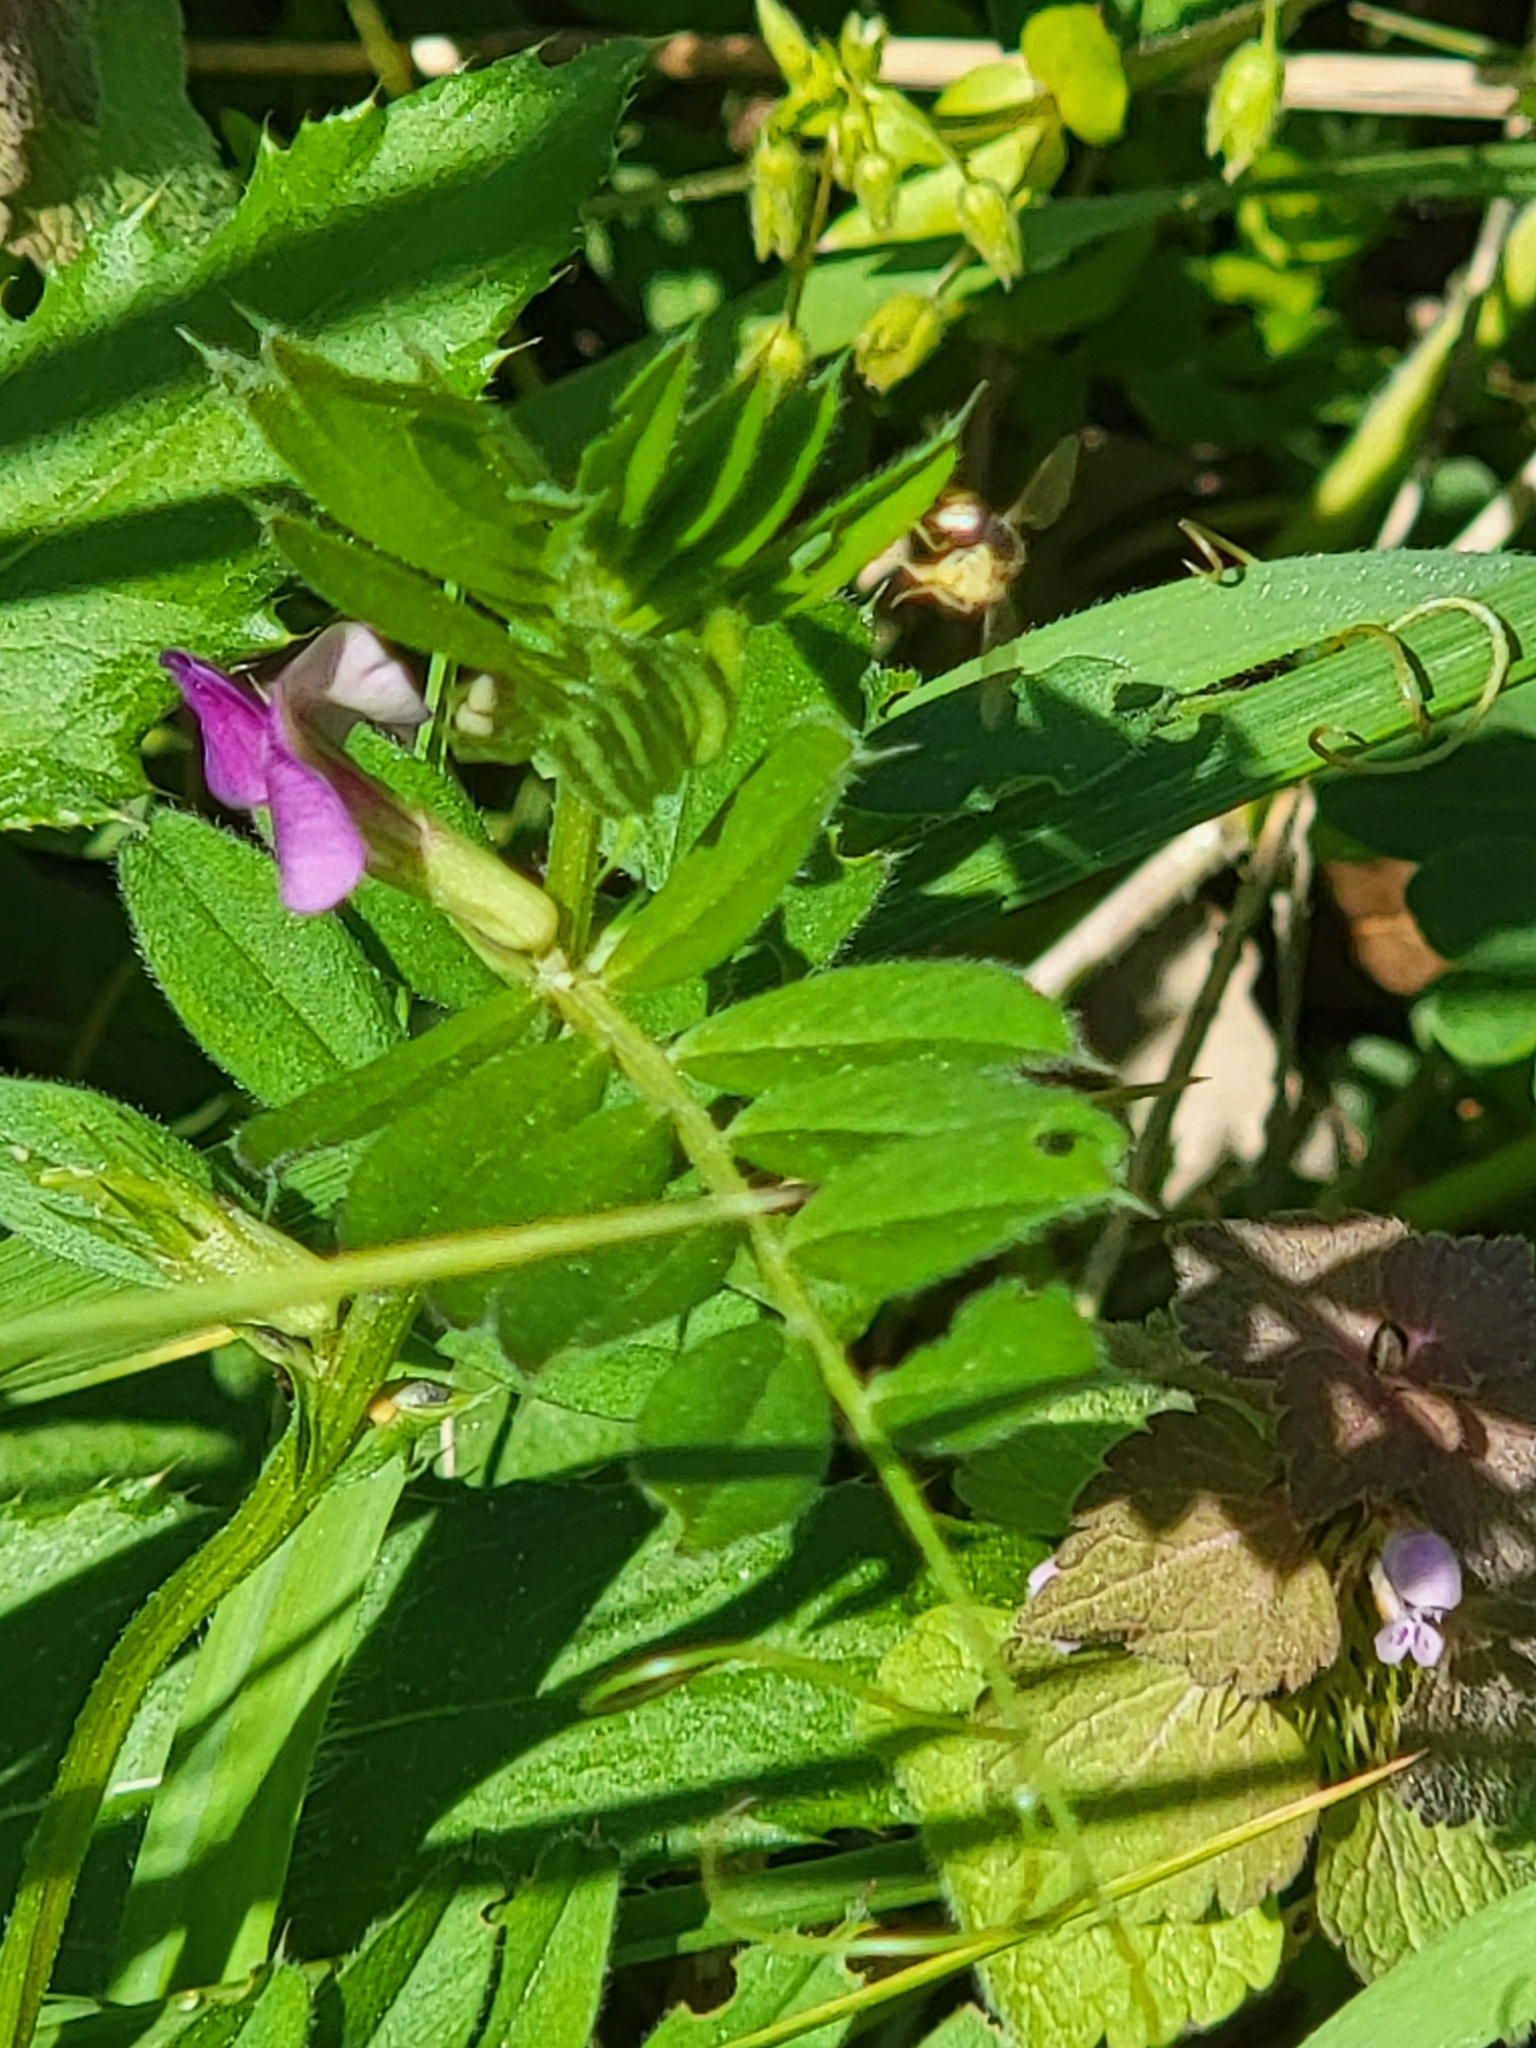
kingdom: Plantae
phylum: Tracheophyta
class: Magnoliopsida
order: Fabales
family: Fabaceae
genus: Vicia
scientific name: Vicia sativa
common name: Garden vetch
